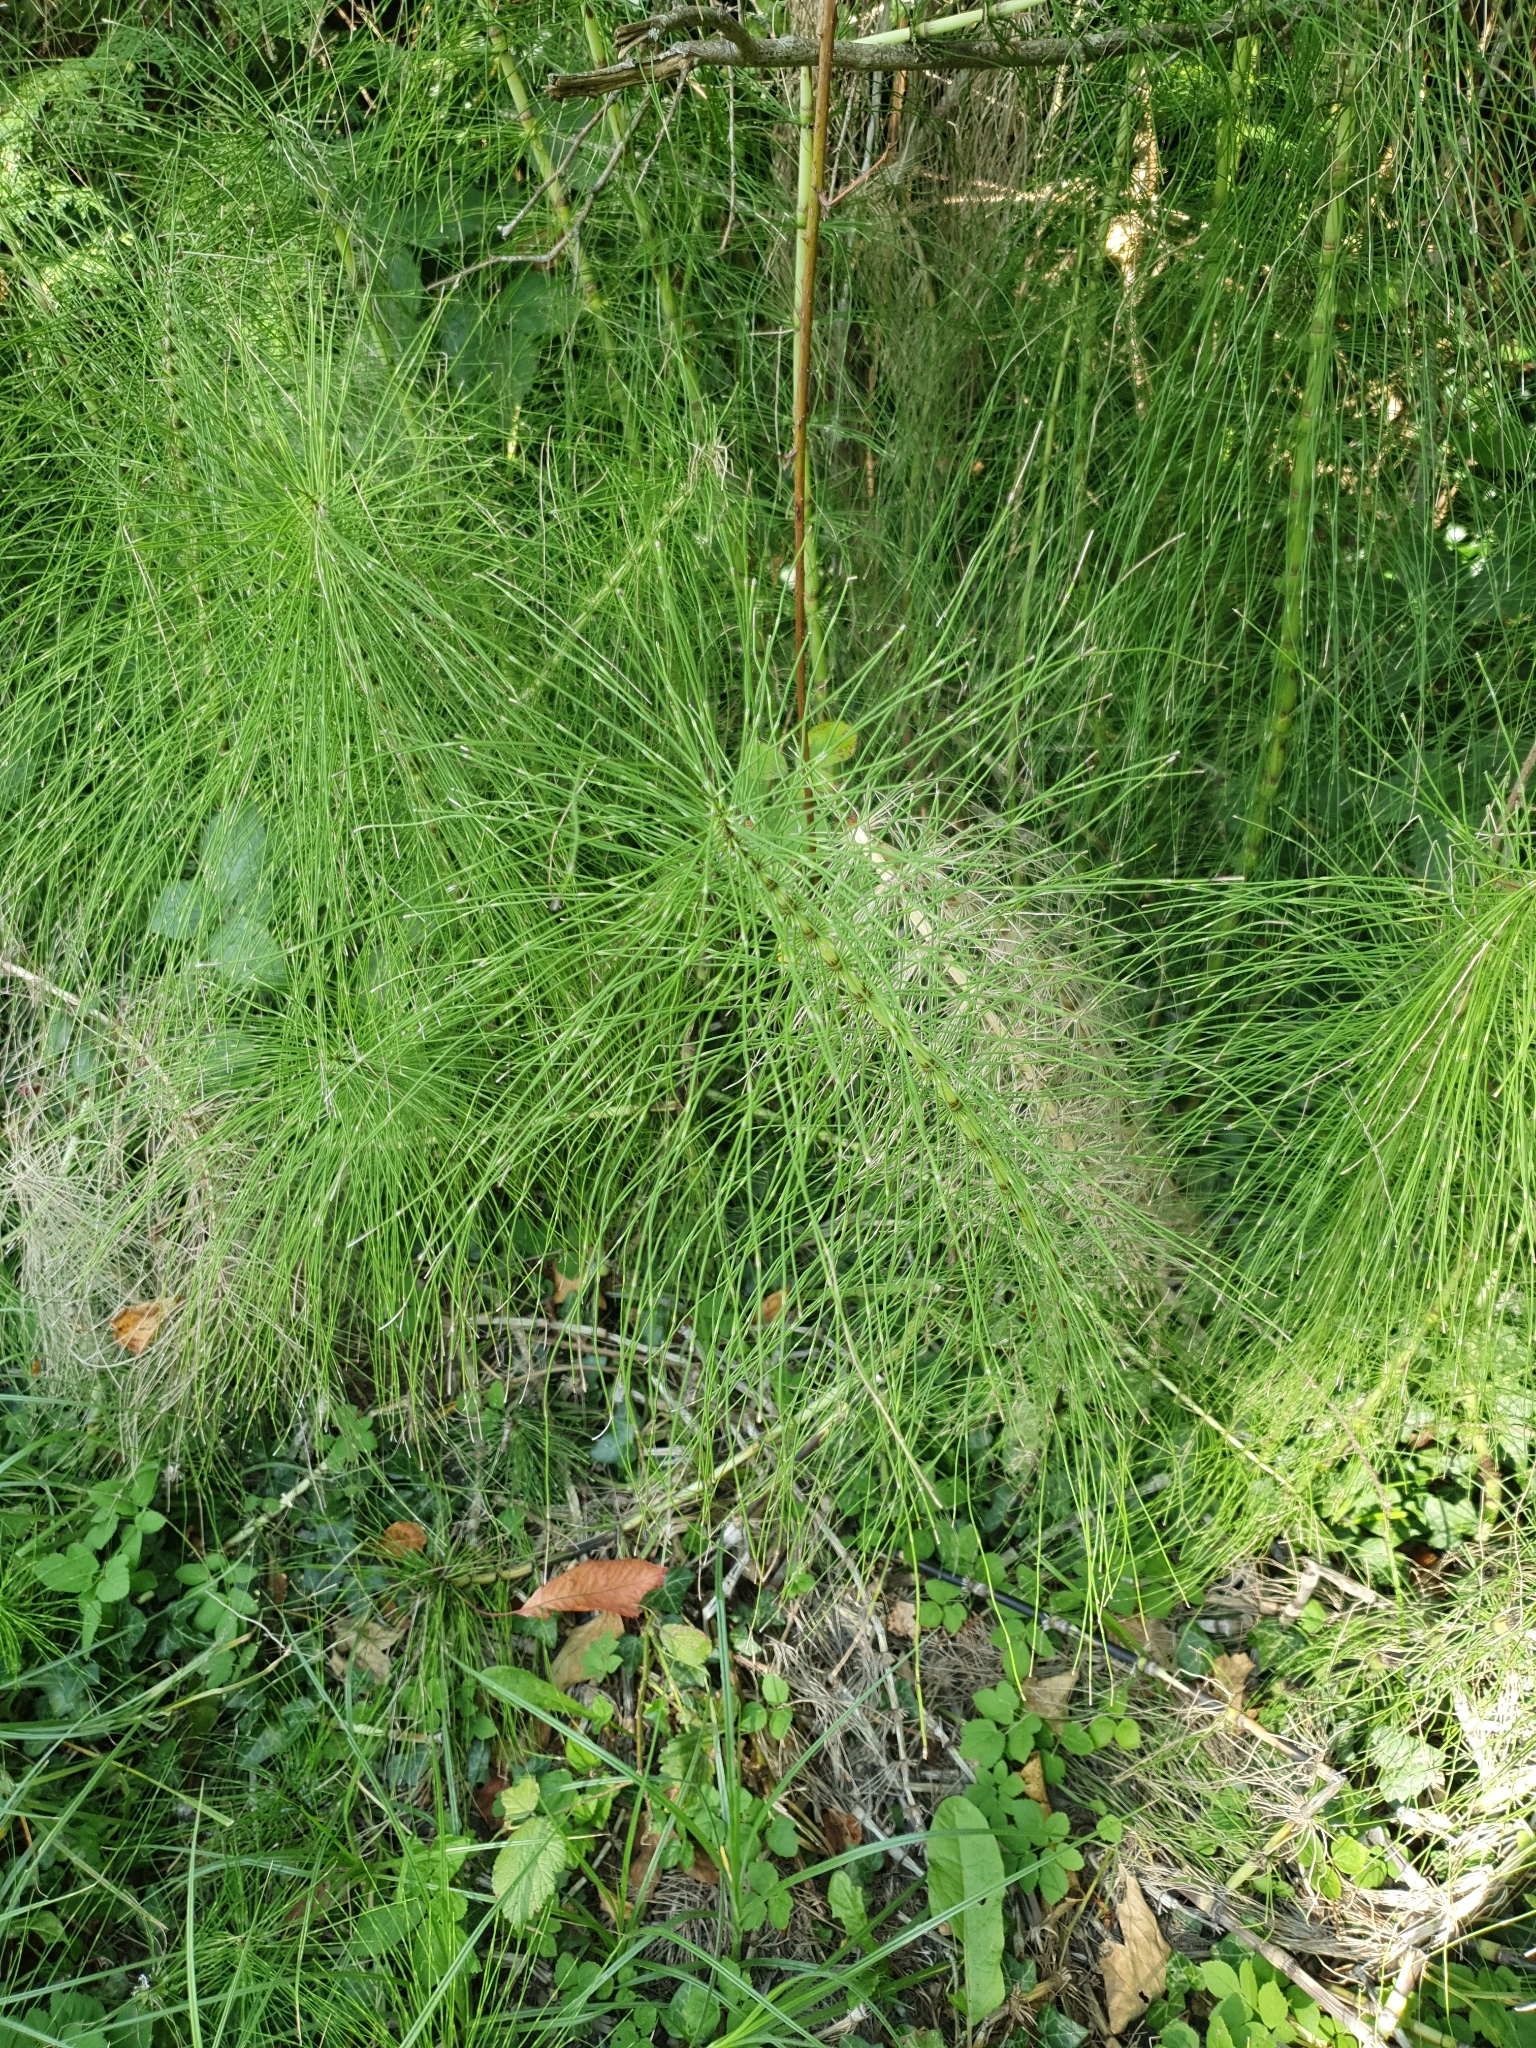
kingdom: Plantae
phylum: Tracheophyta
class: Polypodiopsida
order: Equisetales
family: Equisetaceae
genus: Equisetum
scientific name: Equisetum telmateia
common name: Great horsetail
